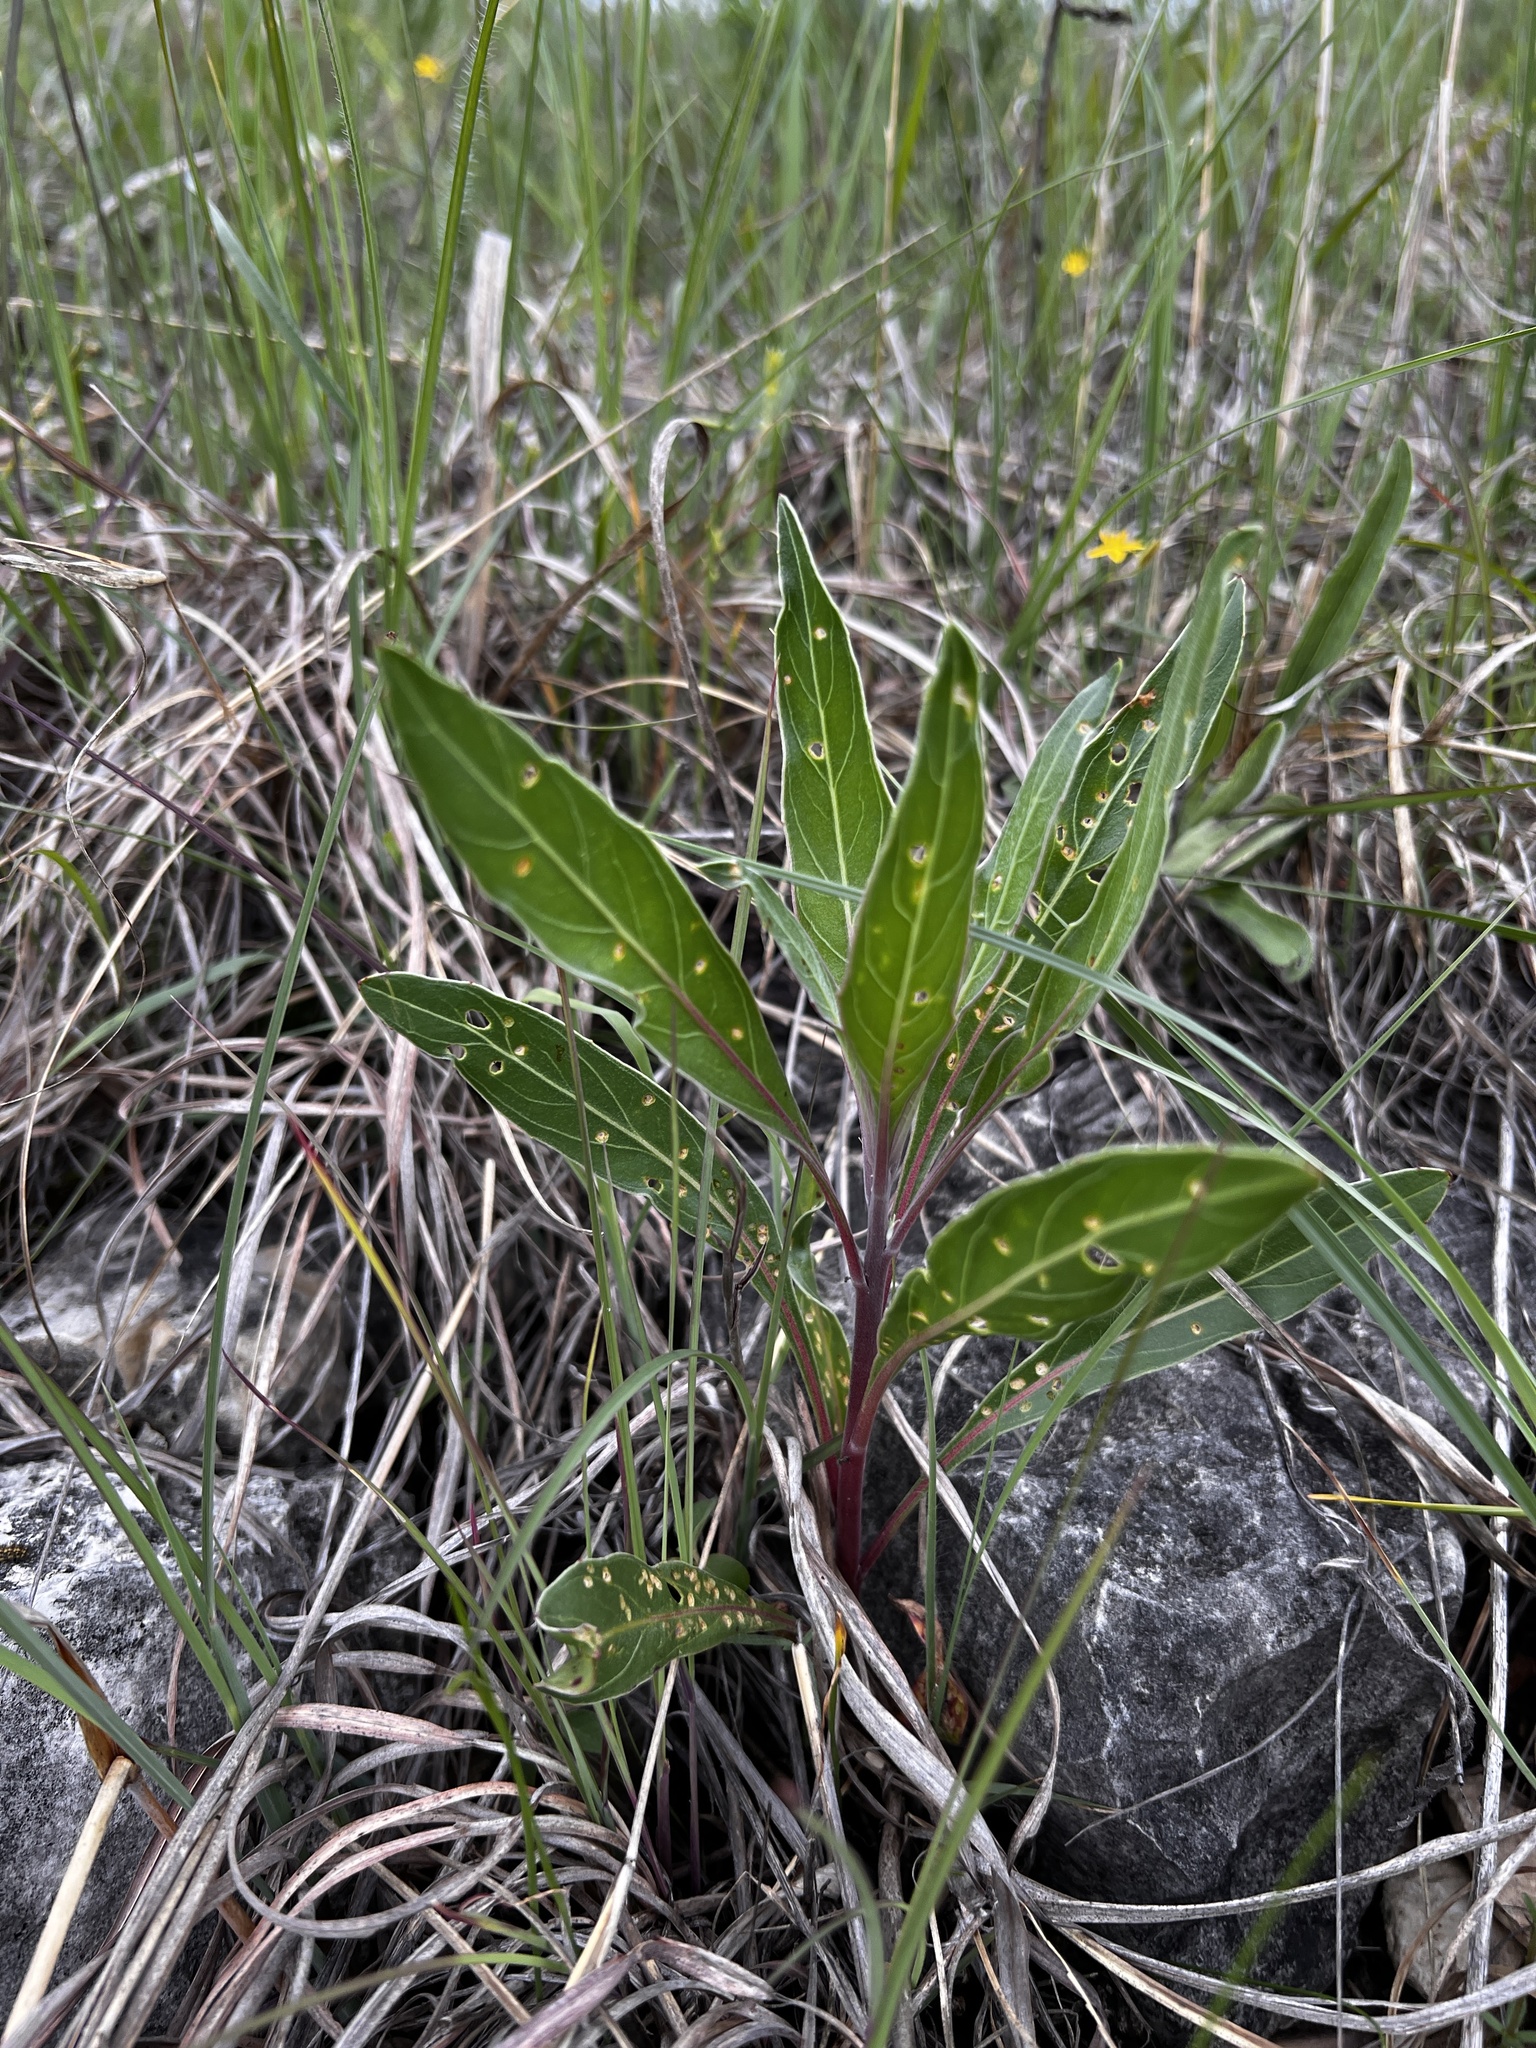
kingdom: Plantae
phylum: Tracheophyta
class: Magnoliopsida
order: Myrtales
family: Onagraceae
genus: Oenothera
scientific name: Oenothera macrocarpa
